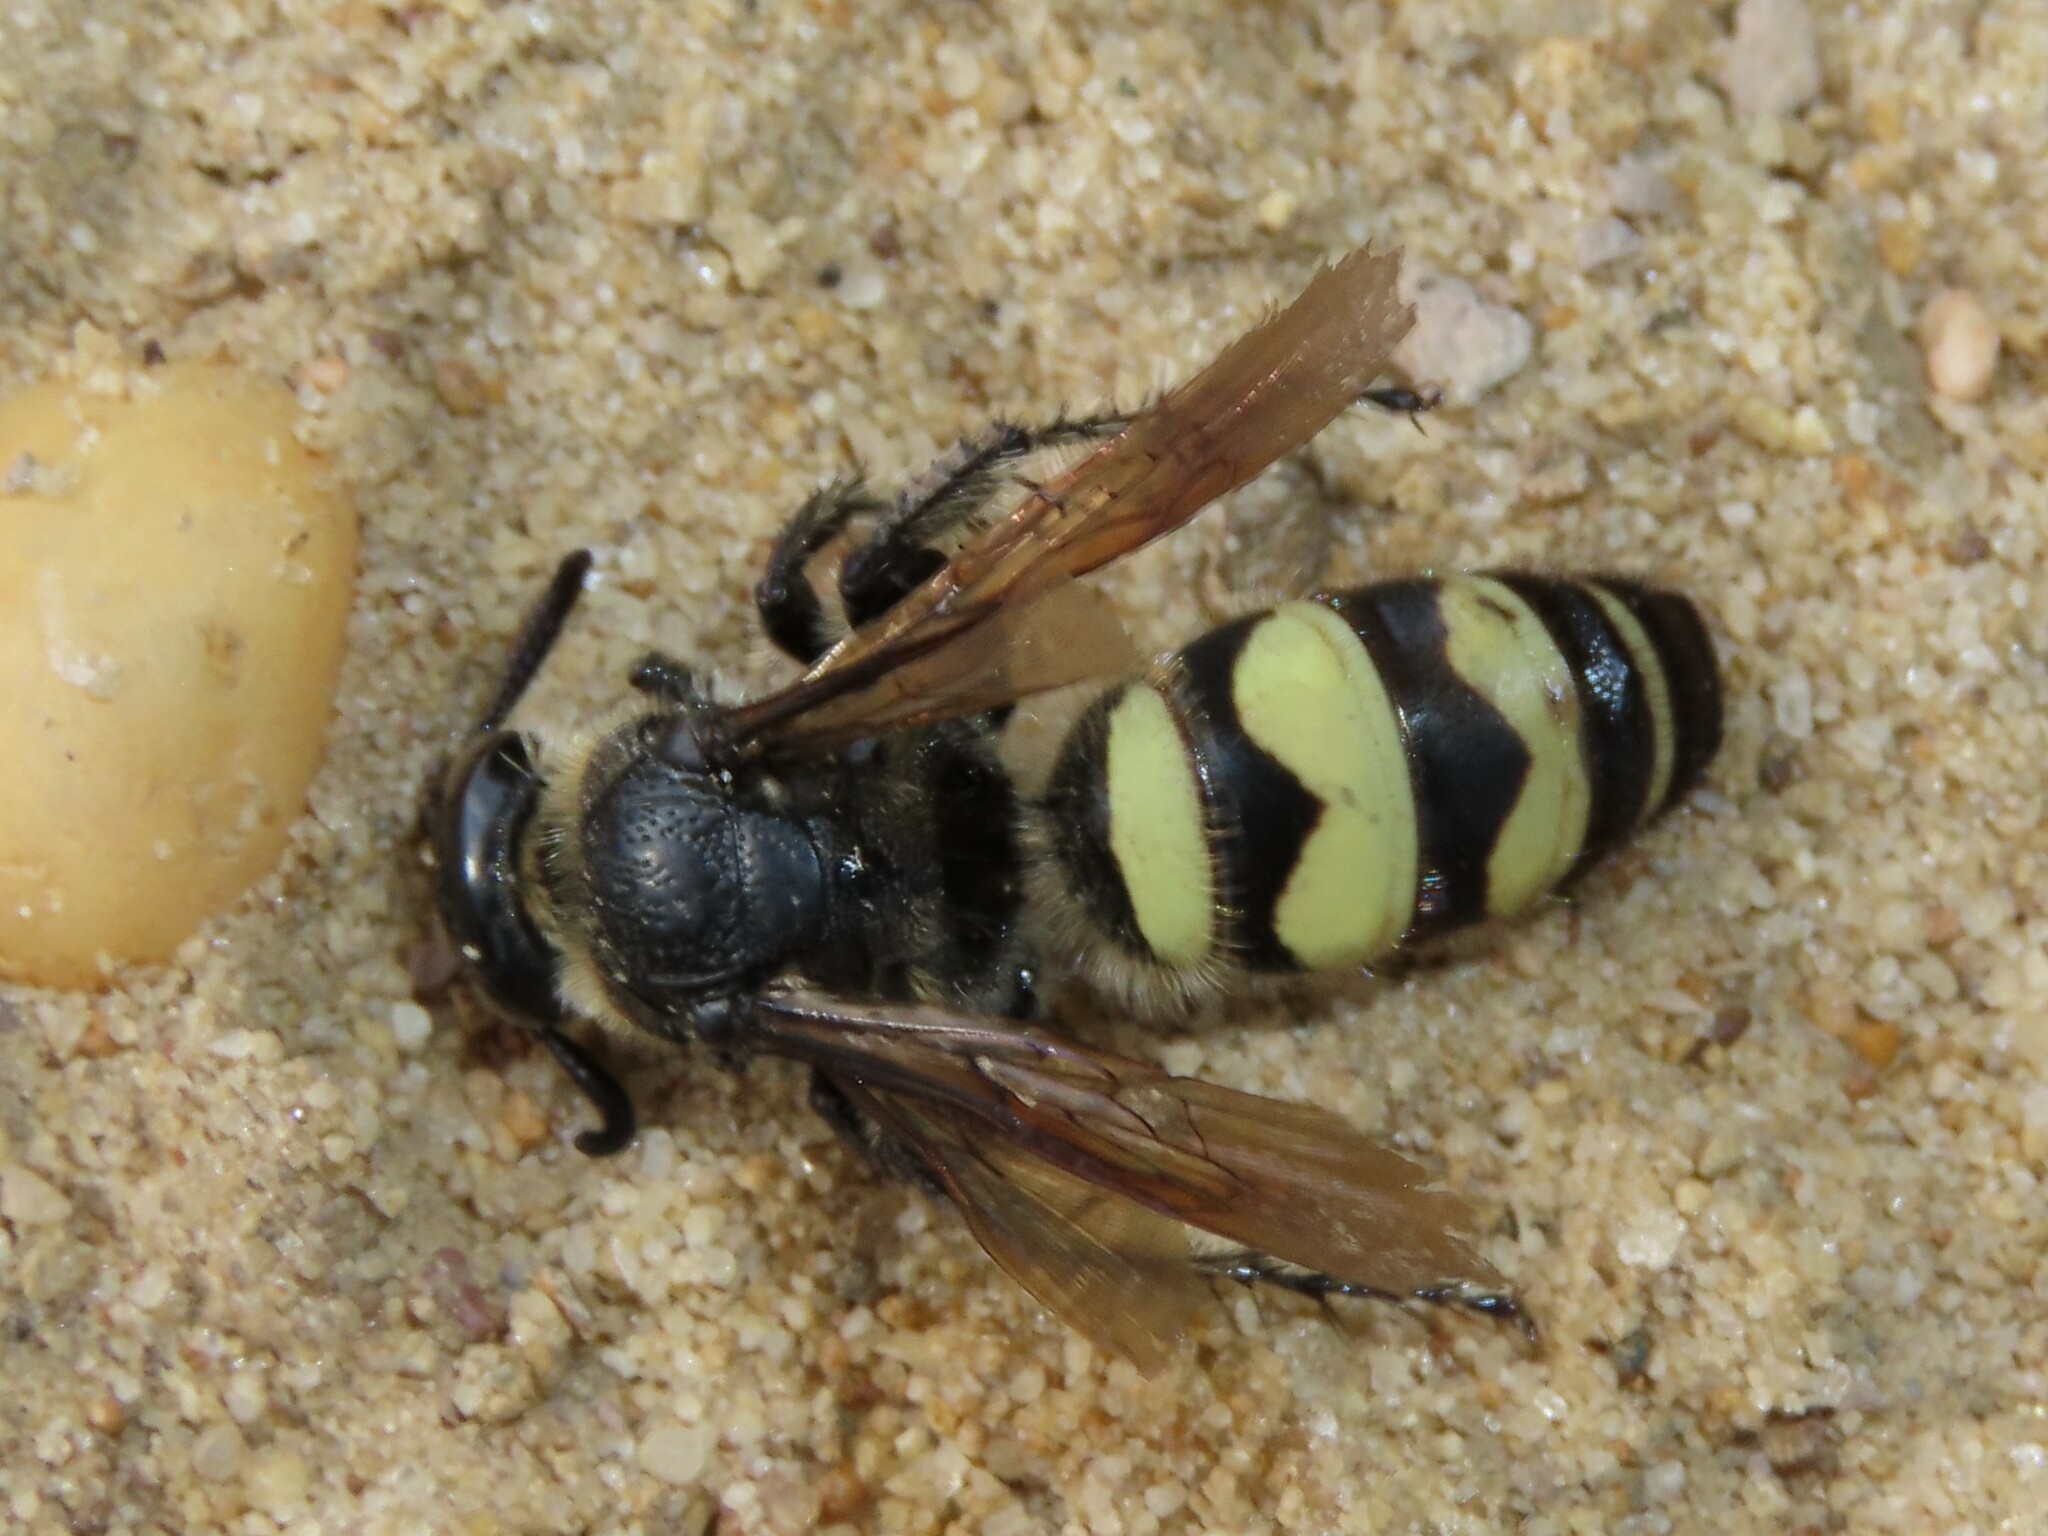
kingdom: Animalia
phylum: Arthropoda
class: Insecta
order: Hymenoptera
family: Scoliidae
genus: Dielis
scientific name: Dielis
